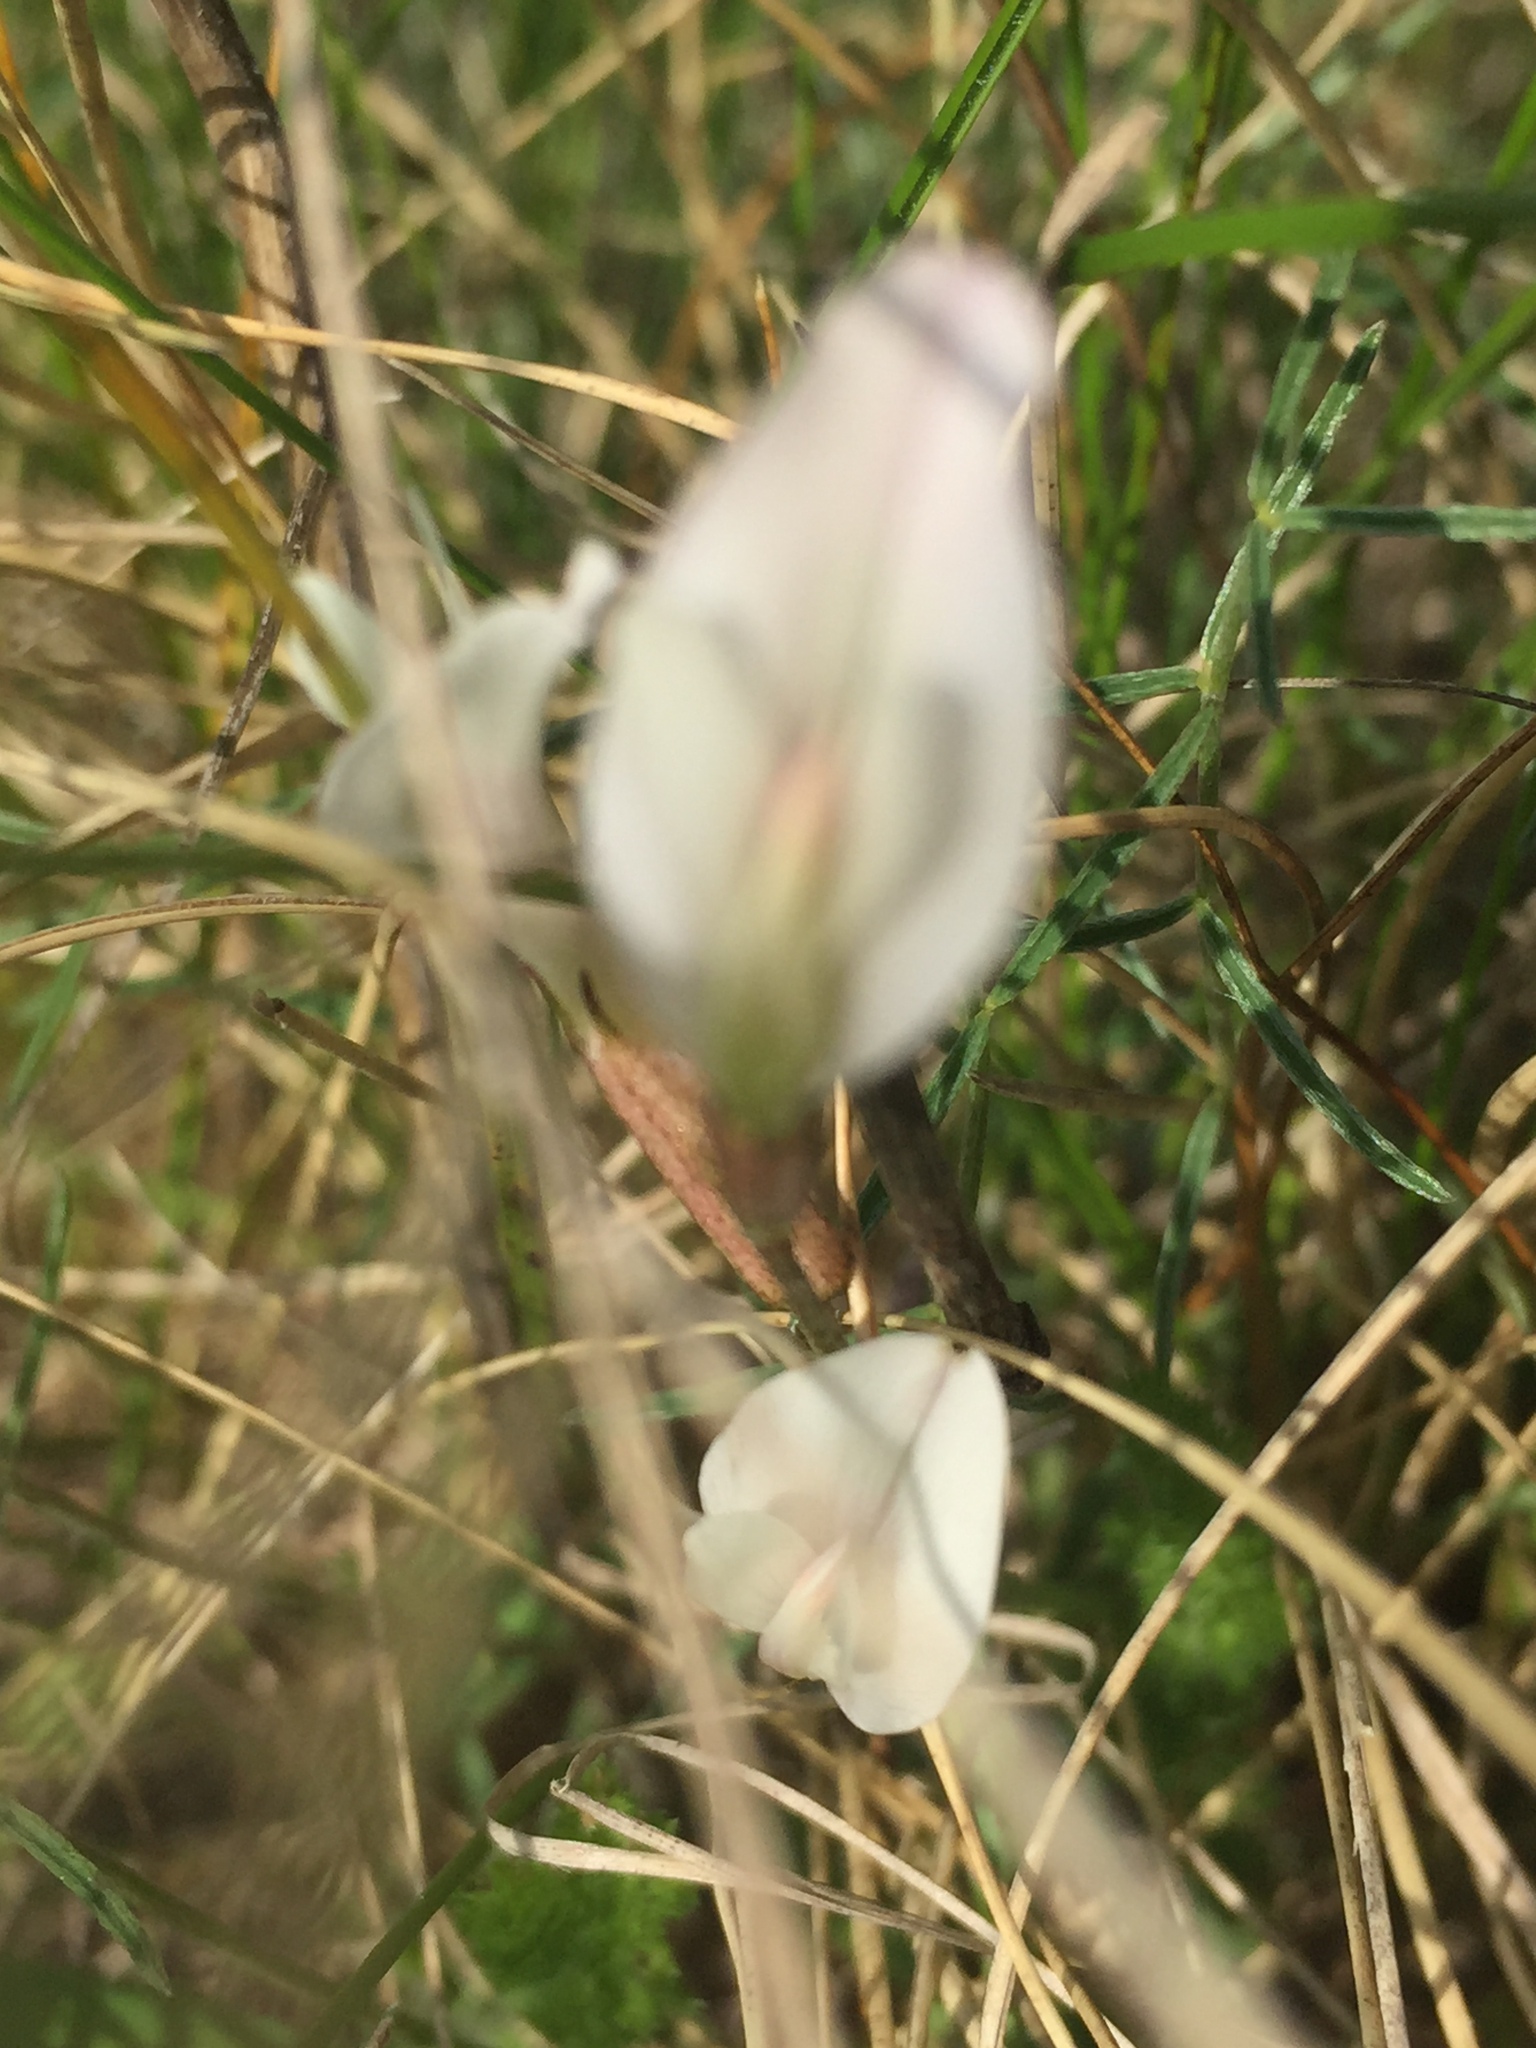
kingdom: Plantae
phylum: Tracheophyta
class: Magnoliopsida
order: Fabales
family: Fabaceae
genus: Astragalus
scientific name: Astragalus ucrainicus
